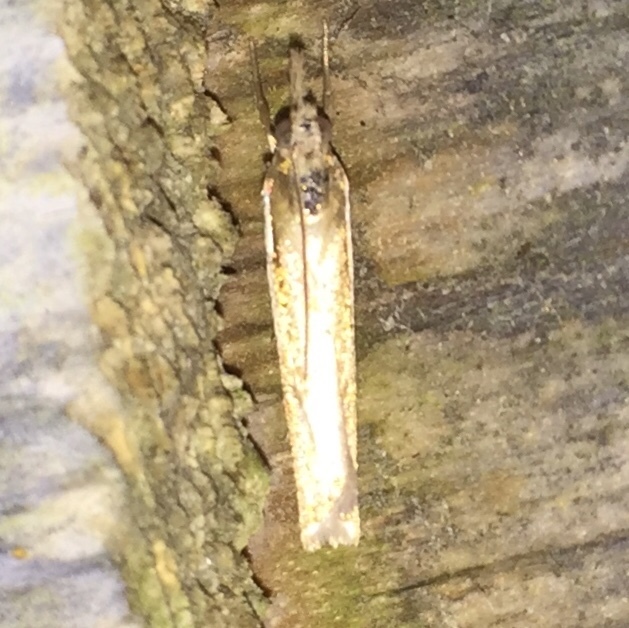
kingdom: Animalia
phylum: Arthropoda
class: Insecta
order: Lepidoptera
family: Crambidae
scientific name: Crambidae
